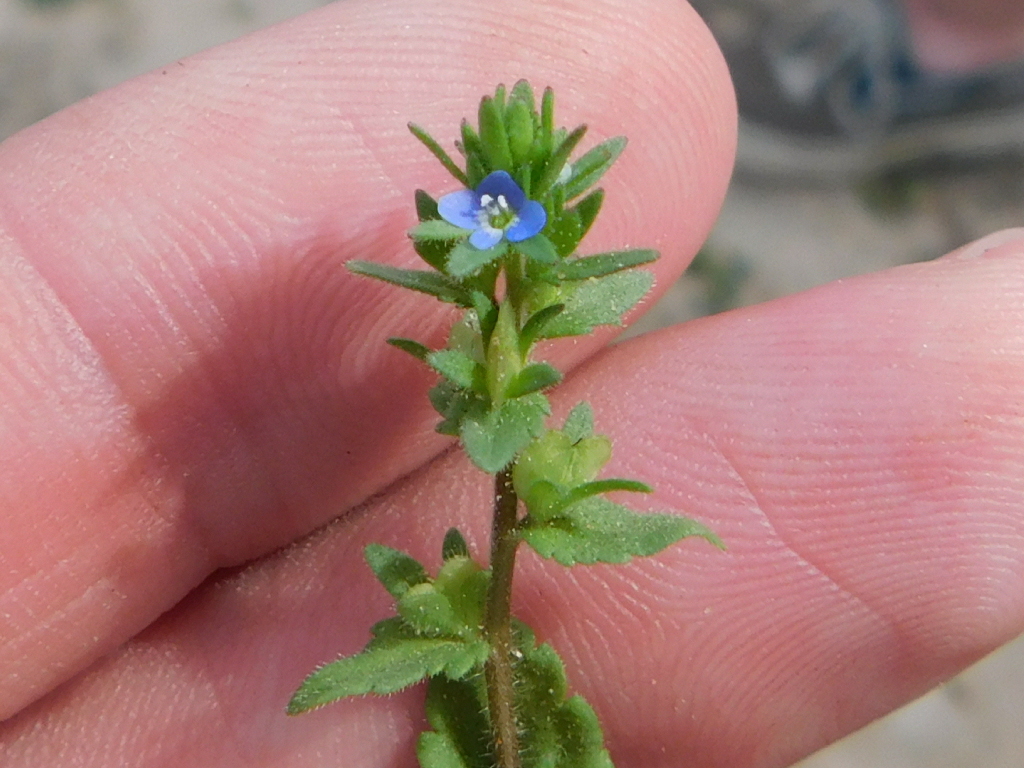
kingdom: Plantae
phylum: Tracheophyta
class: Magnoliopsida
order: Lamiales
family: Plantaginaceae
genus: Veronica
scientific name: Veronica arvensis
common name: Corn speedwell
